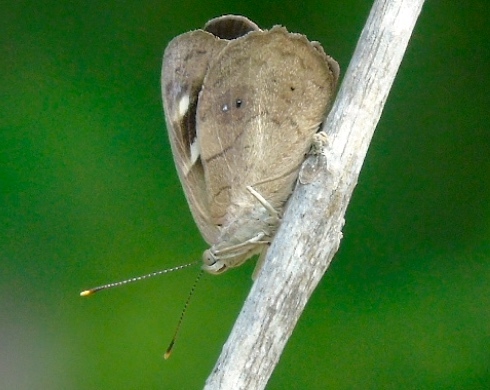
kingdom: Animalia
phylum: Arthropoda
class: Insecta
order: Lepidoptera
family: Nymphalidae
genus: Eunica
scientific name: Eunica monima
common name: Dingy purplewing
